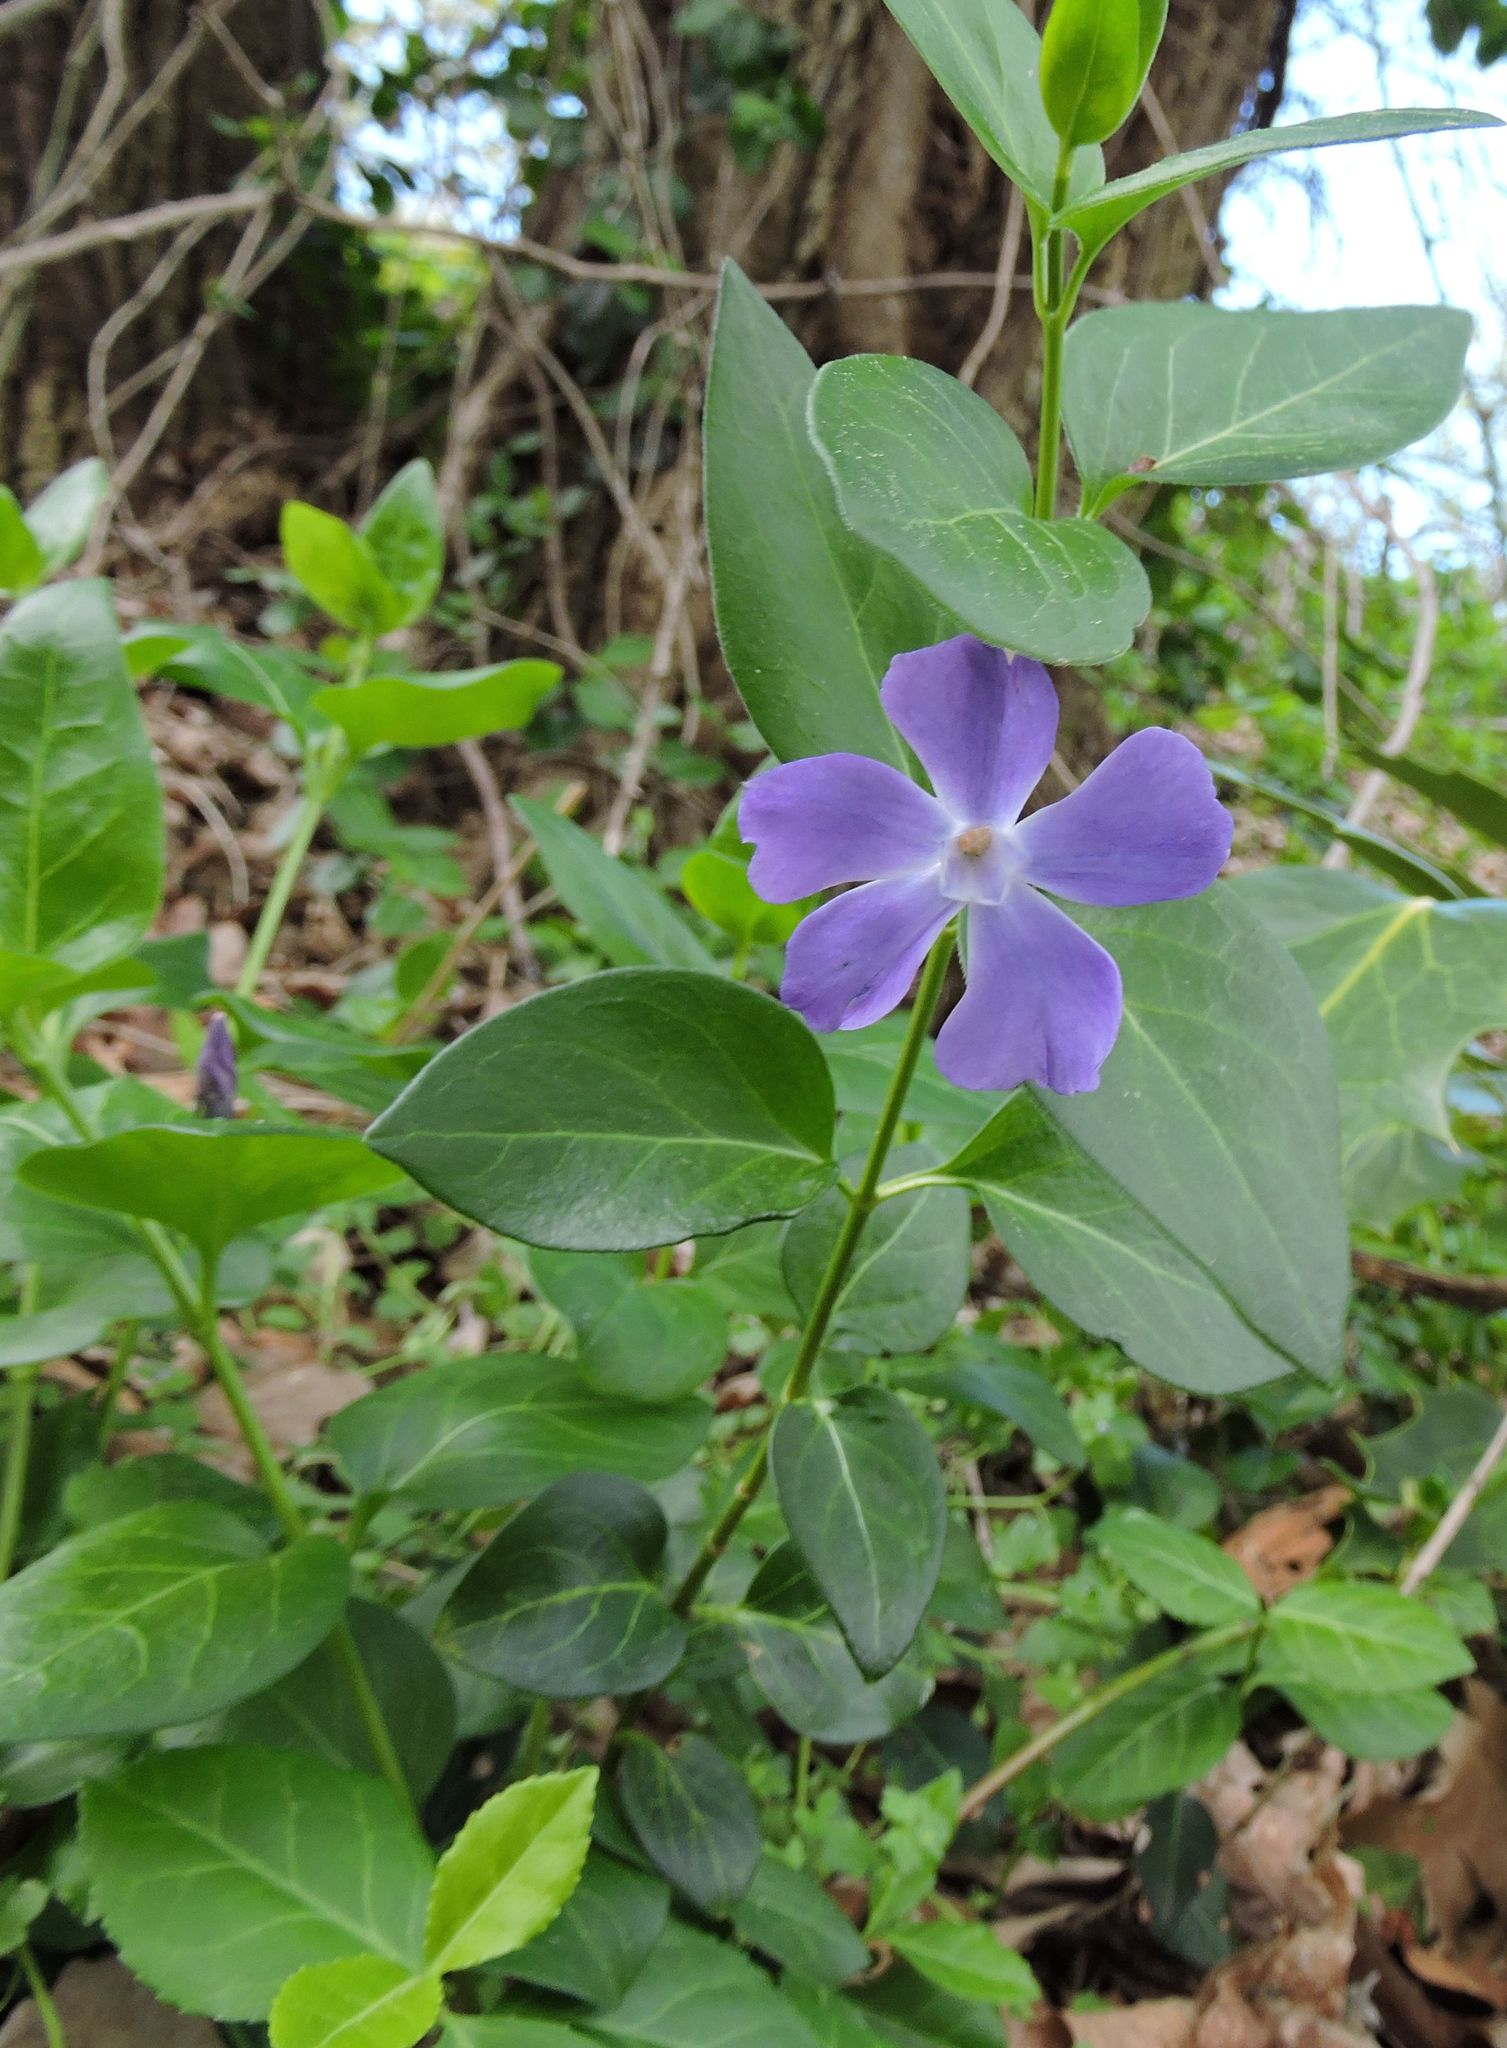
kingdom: Plantae
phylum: Tracheophyta
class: Magnoliopsida
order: Gentianales
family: Apocynaceae
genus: Vinca
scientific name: Vinca major
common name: Greater periwinkle
